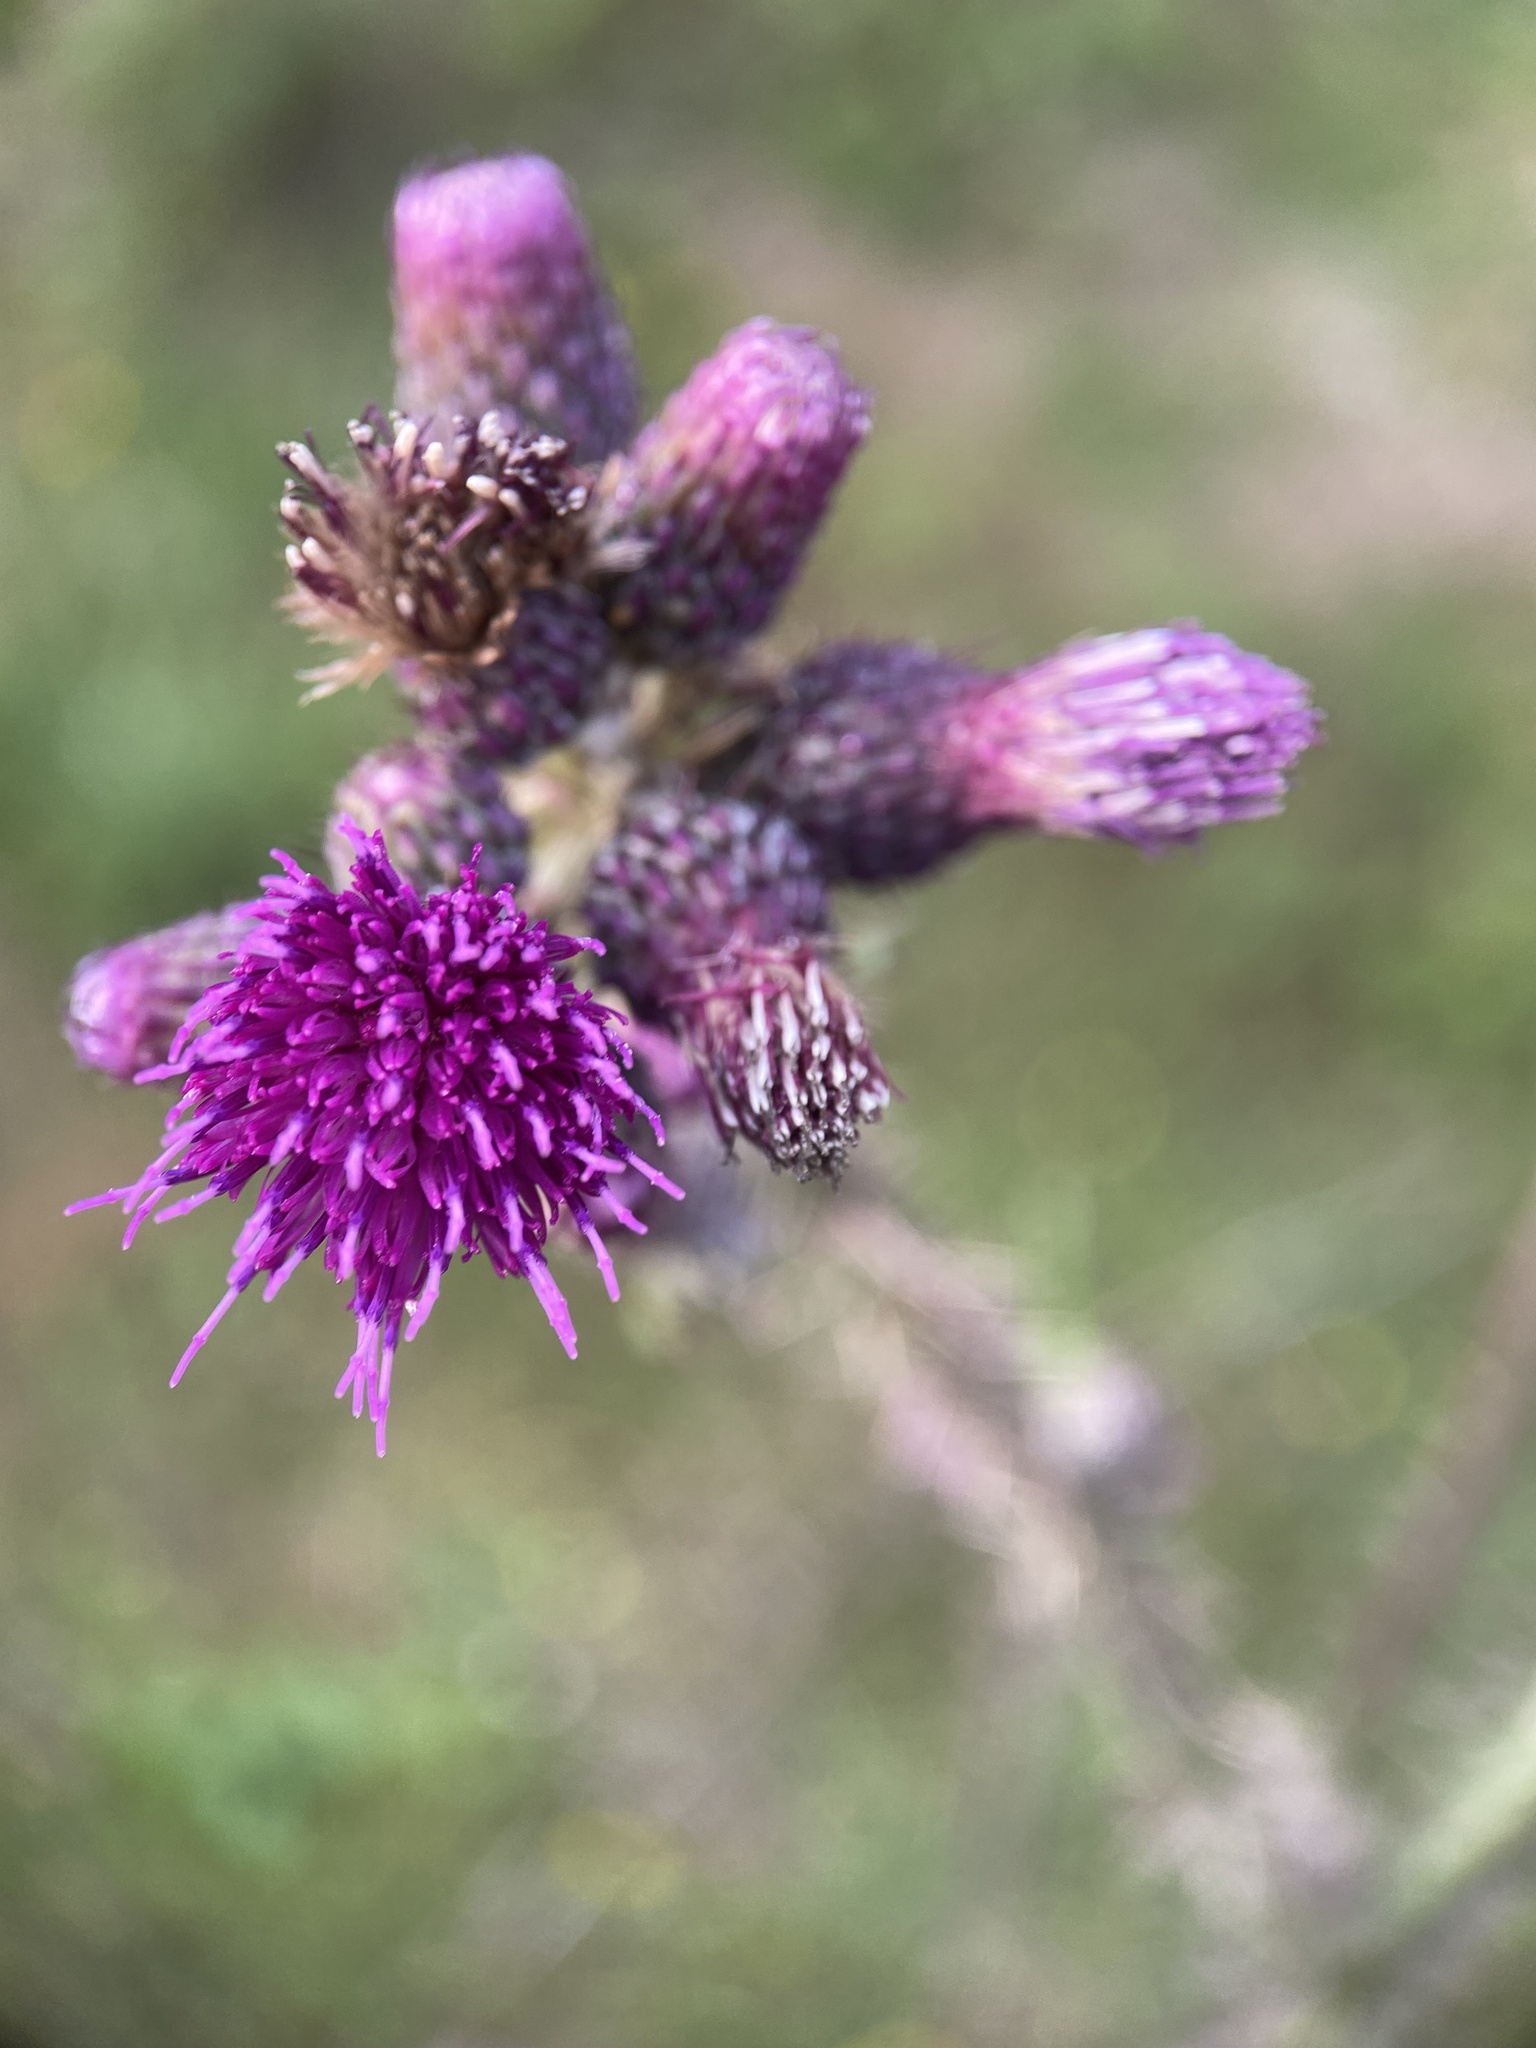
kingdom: Plantae
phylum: Tracheophyta
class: Magnoliopsida
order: Asterales
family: Asteraceae
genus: Cirsium
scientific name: Cirsium palustre
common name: Marsh thistle
